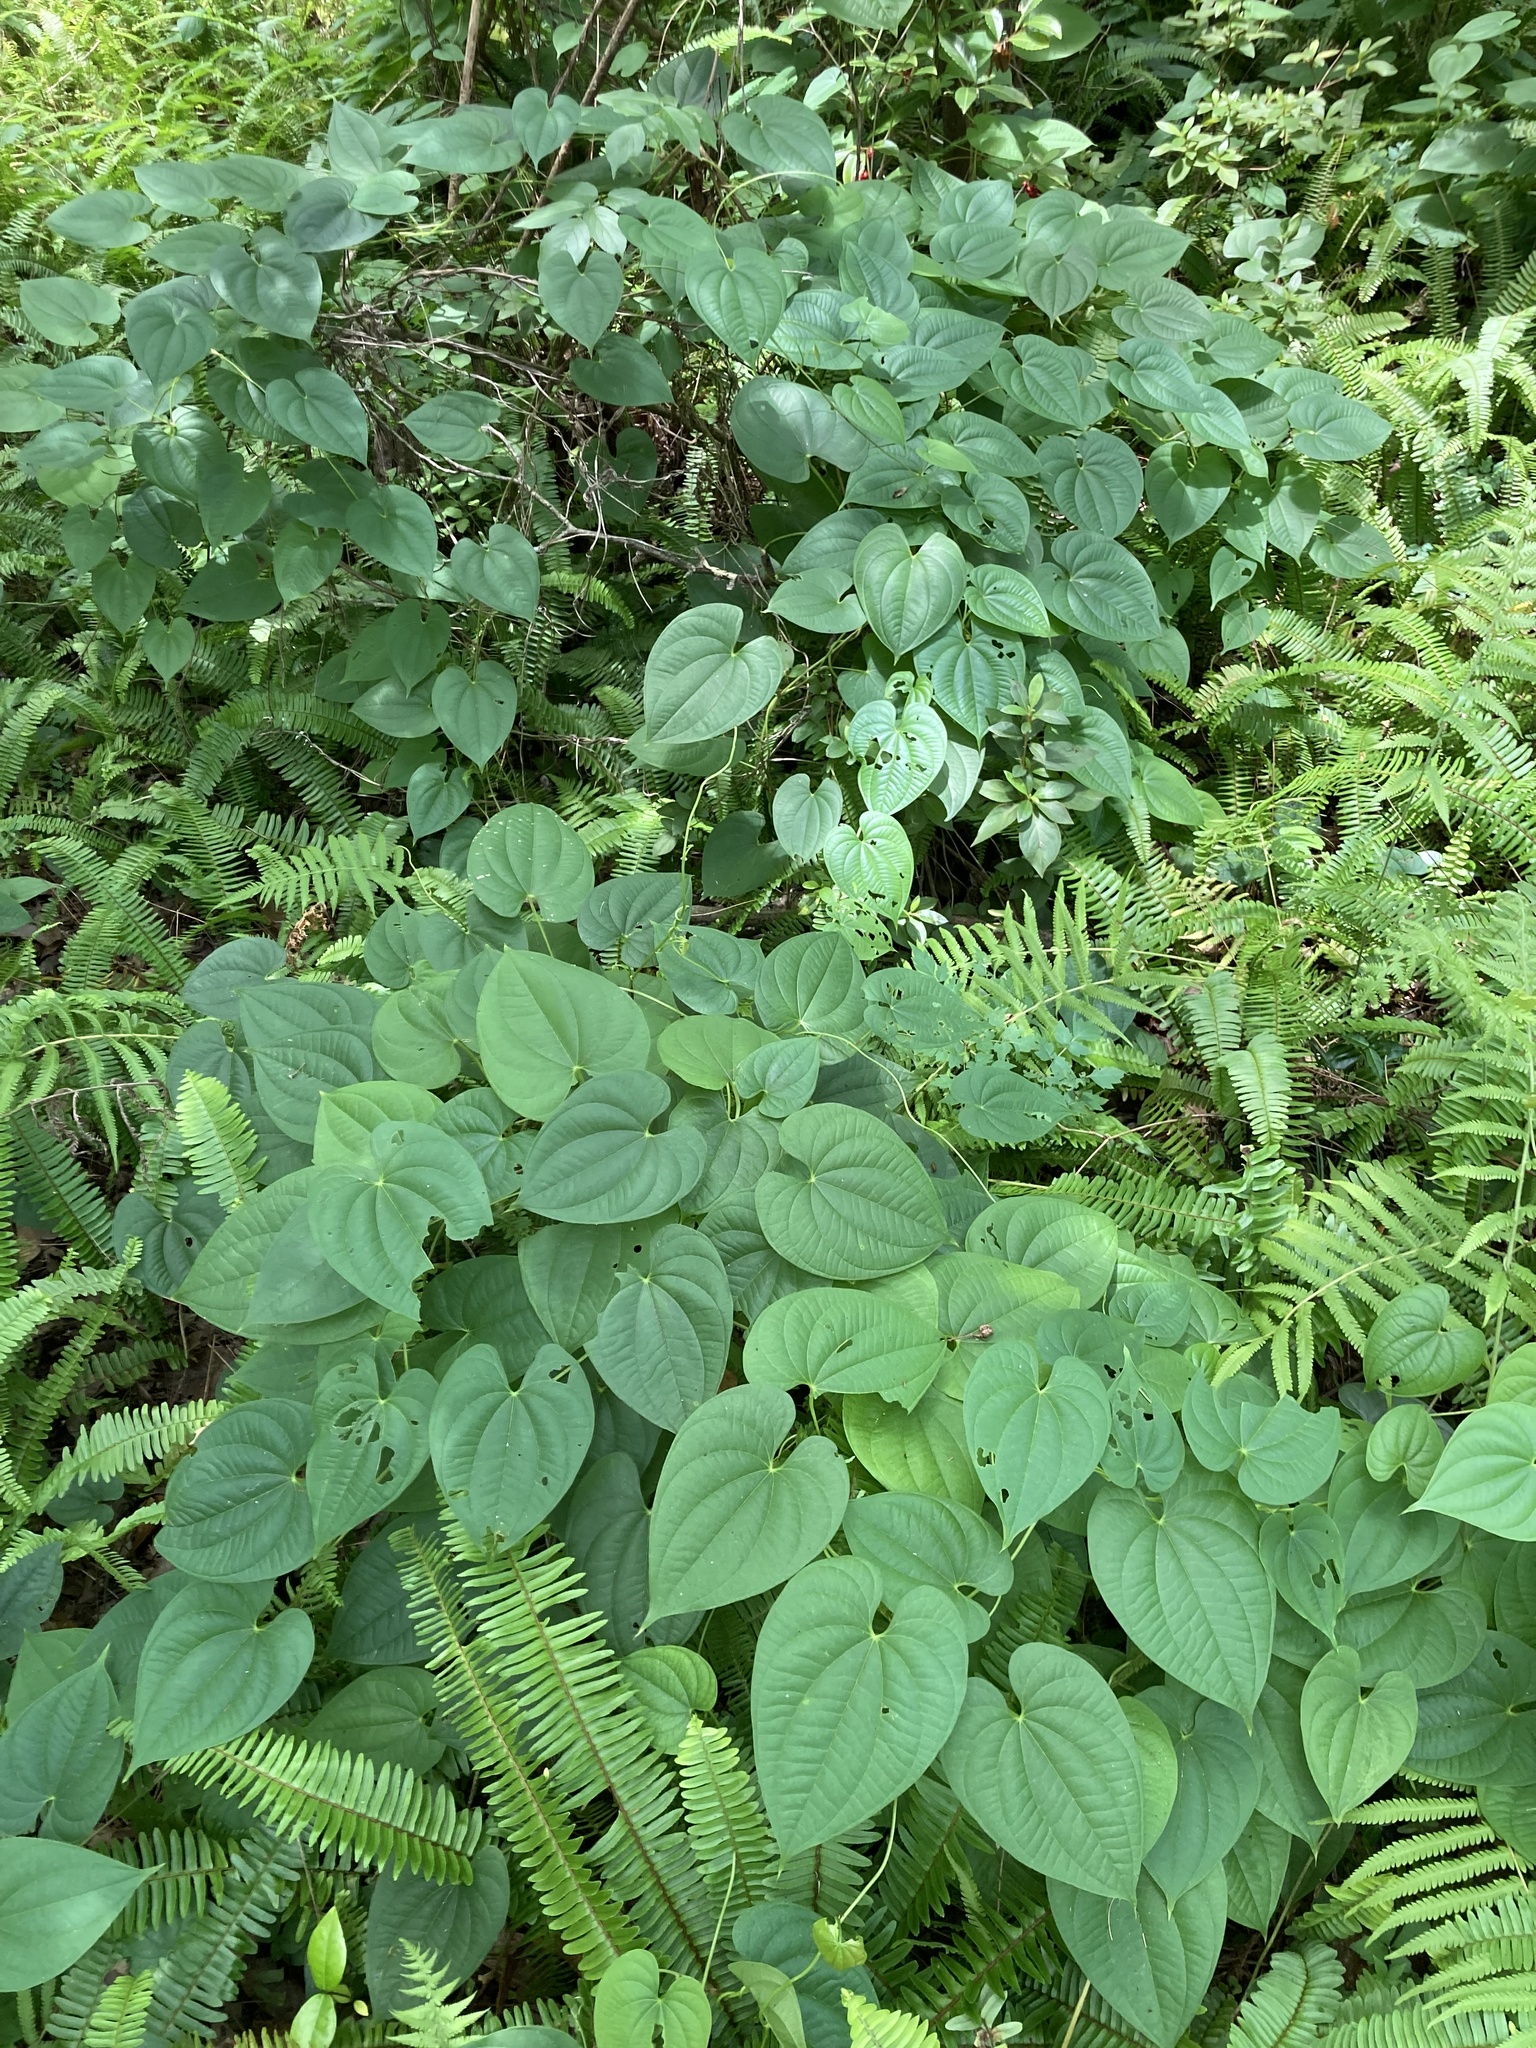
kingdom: Plantae
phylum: Tracheophyta
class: Liliopsida
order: Dioscoreales
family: Dioscoreaceae
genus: Dioscorea
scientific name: Dioscorea bulbifera
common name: Air yam
